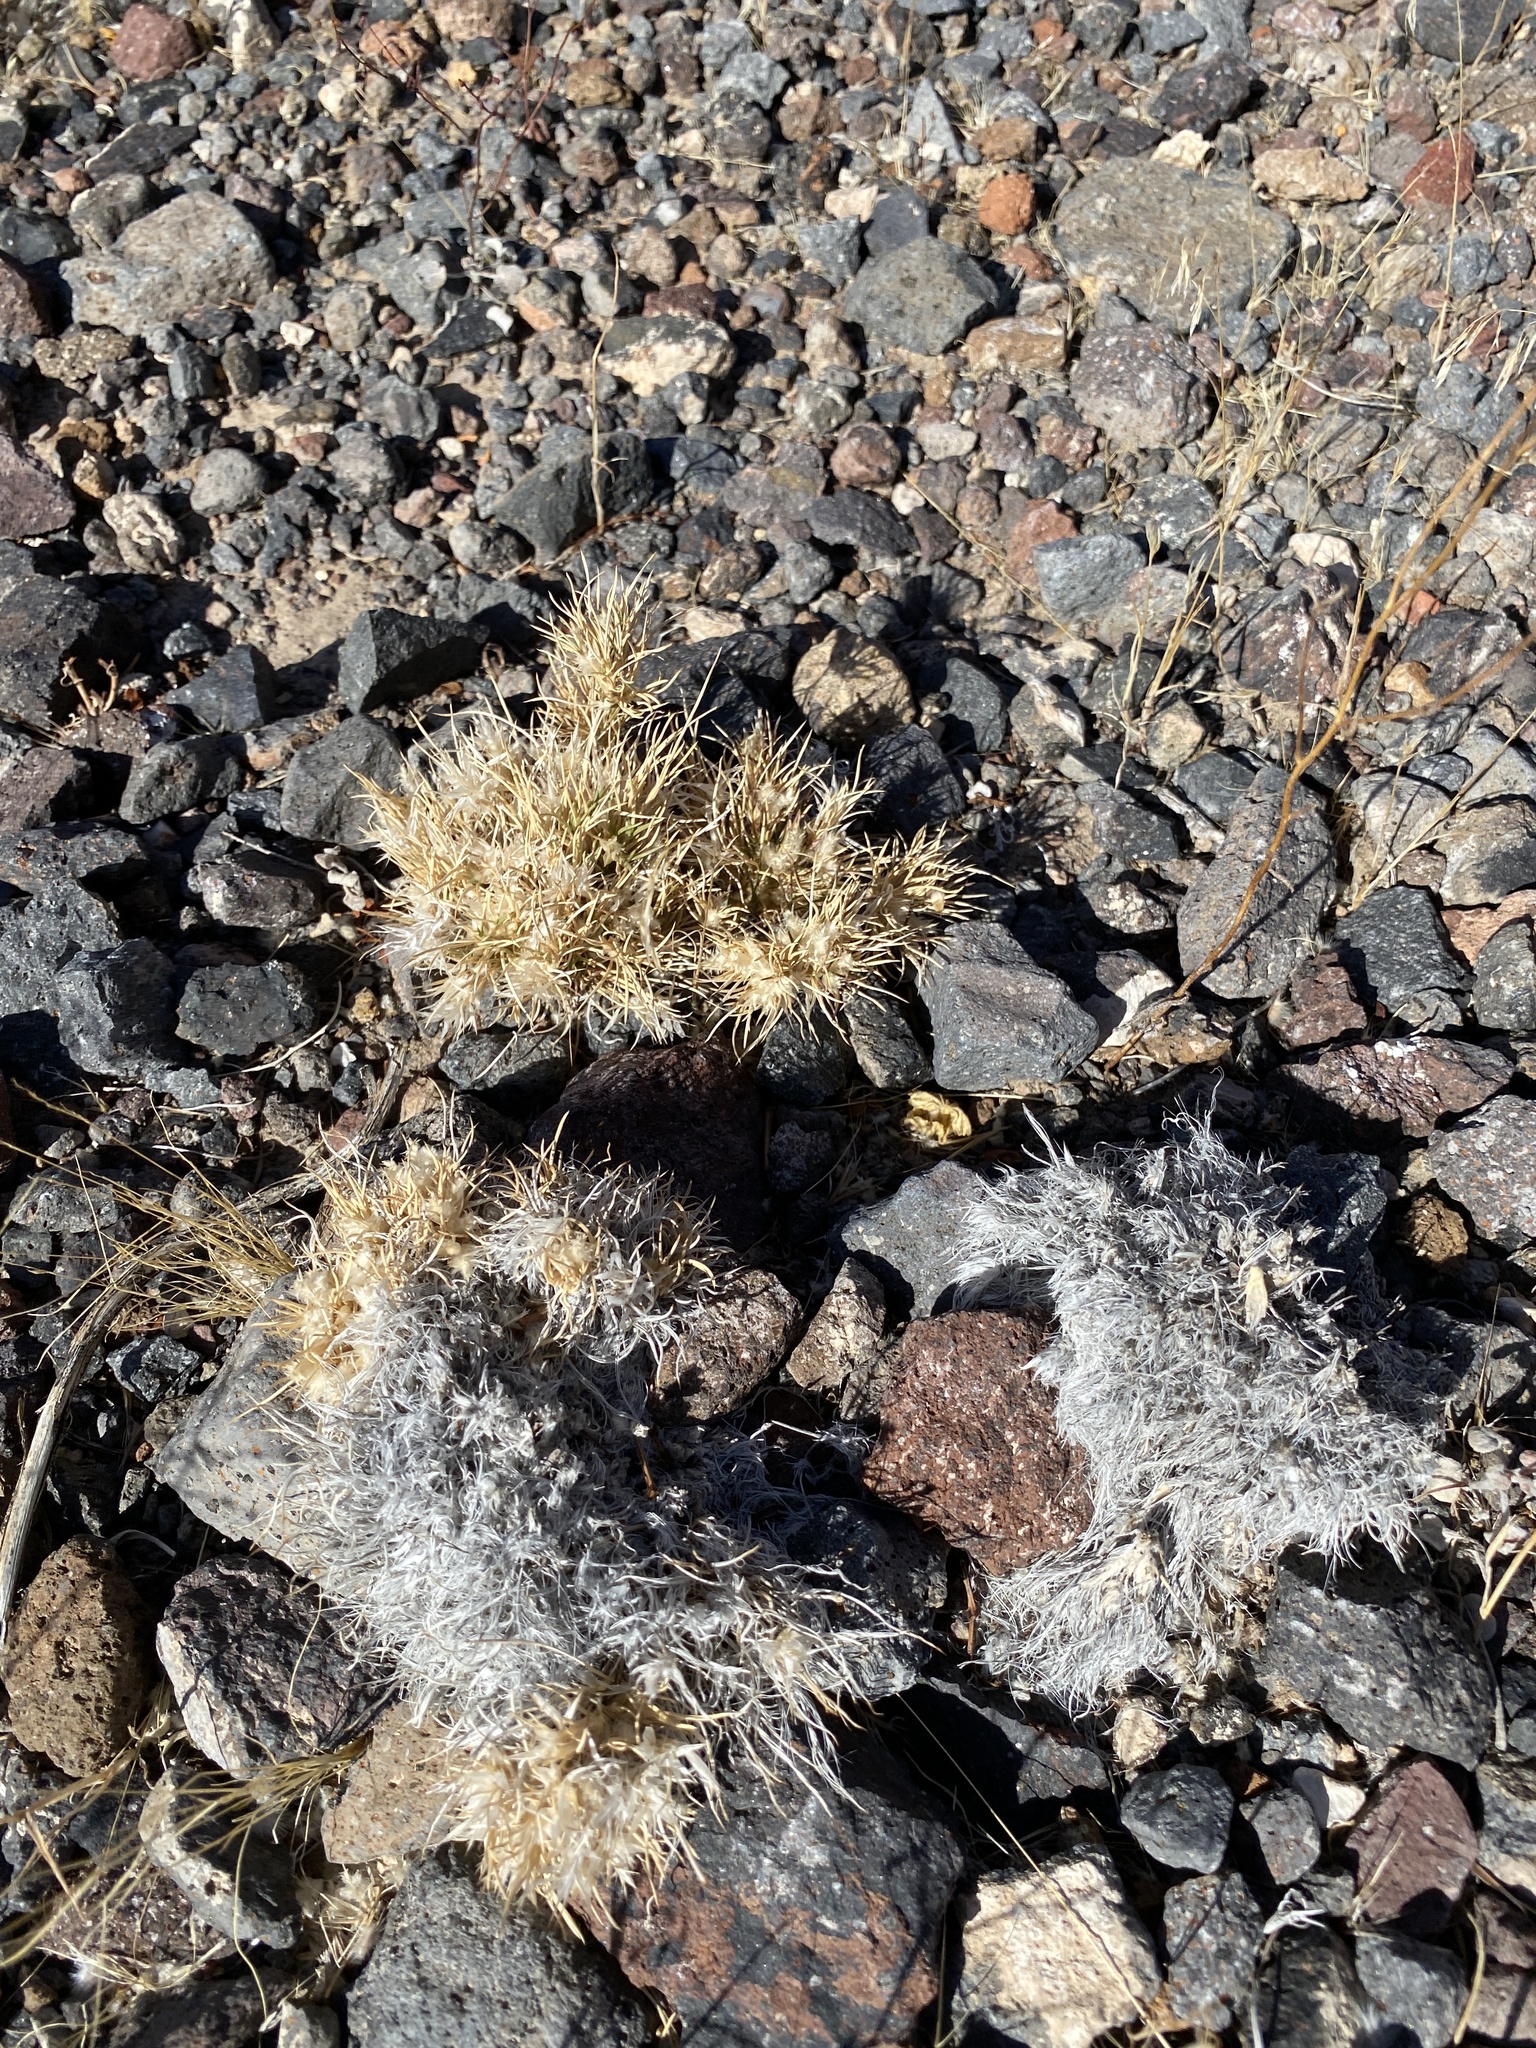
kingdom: Plantae
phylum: Tracheophyta
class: Liliopsida
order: Poales
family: Poaceae
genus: Dasyochloa
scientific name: Dasyochloa pulchella
